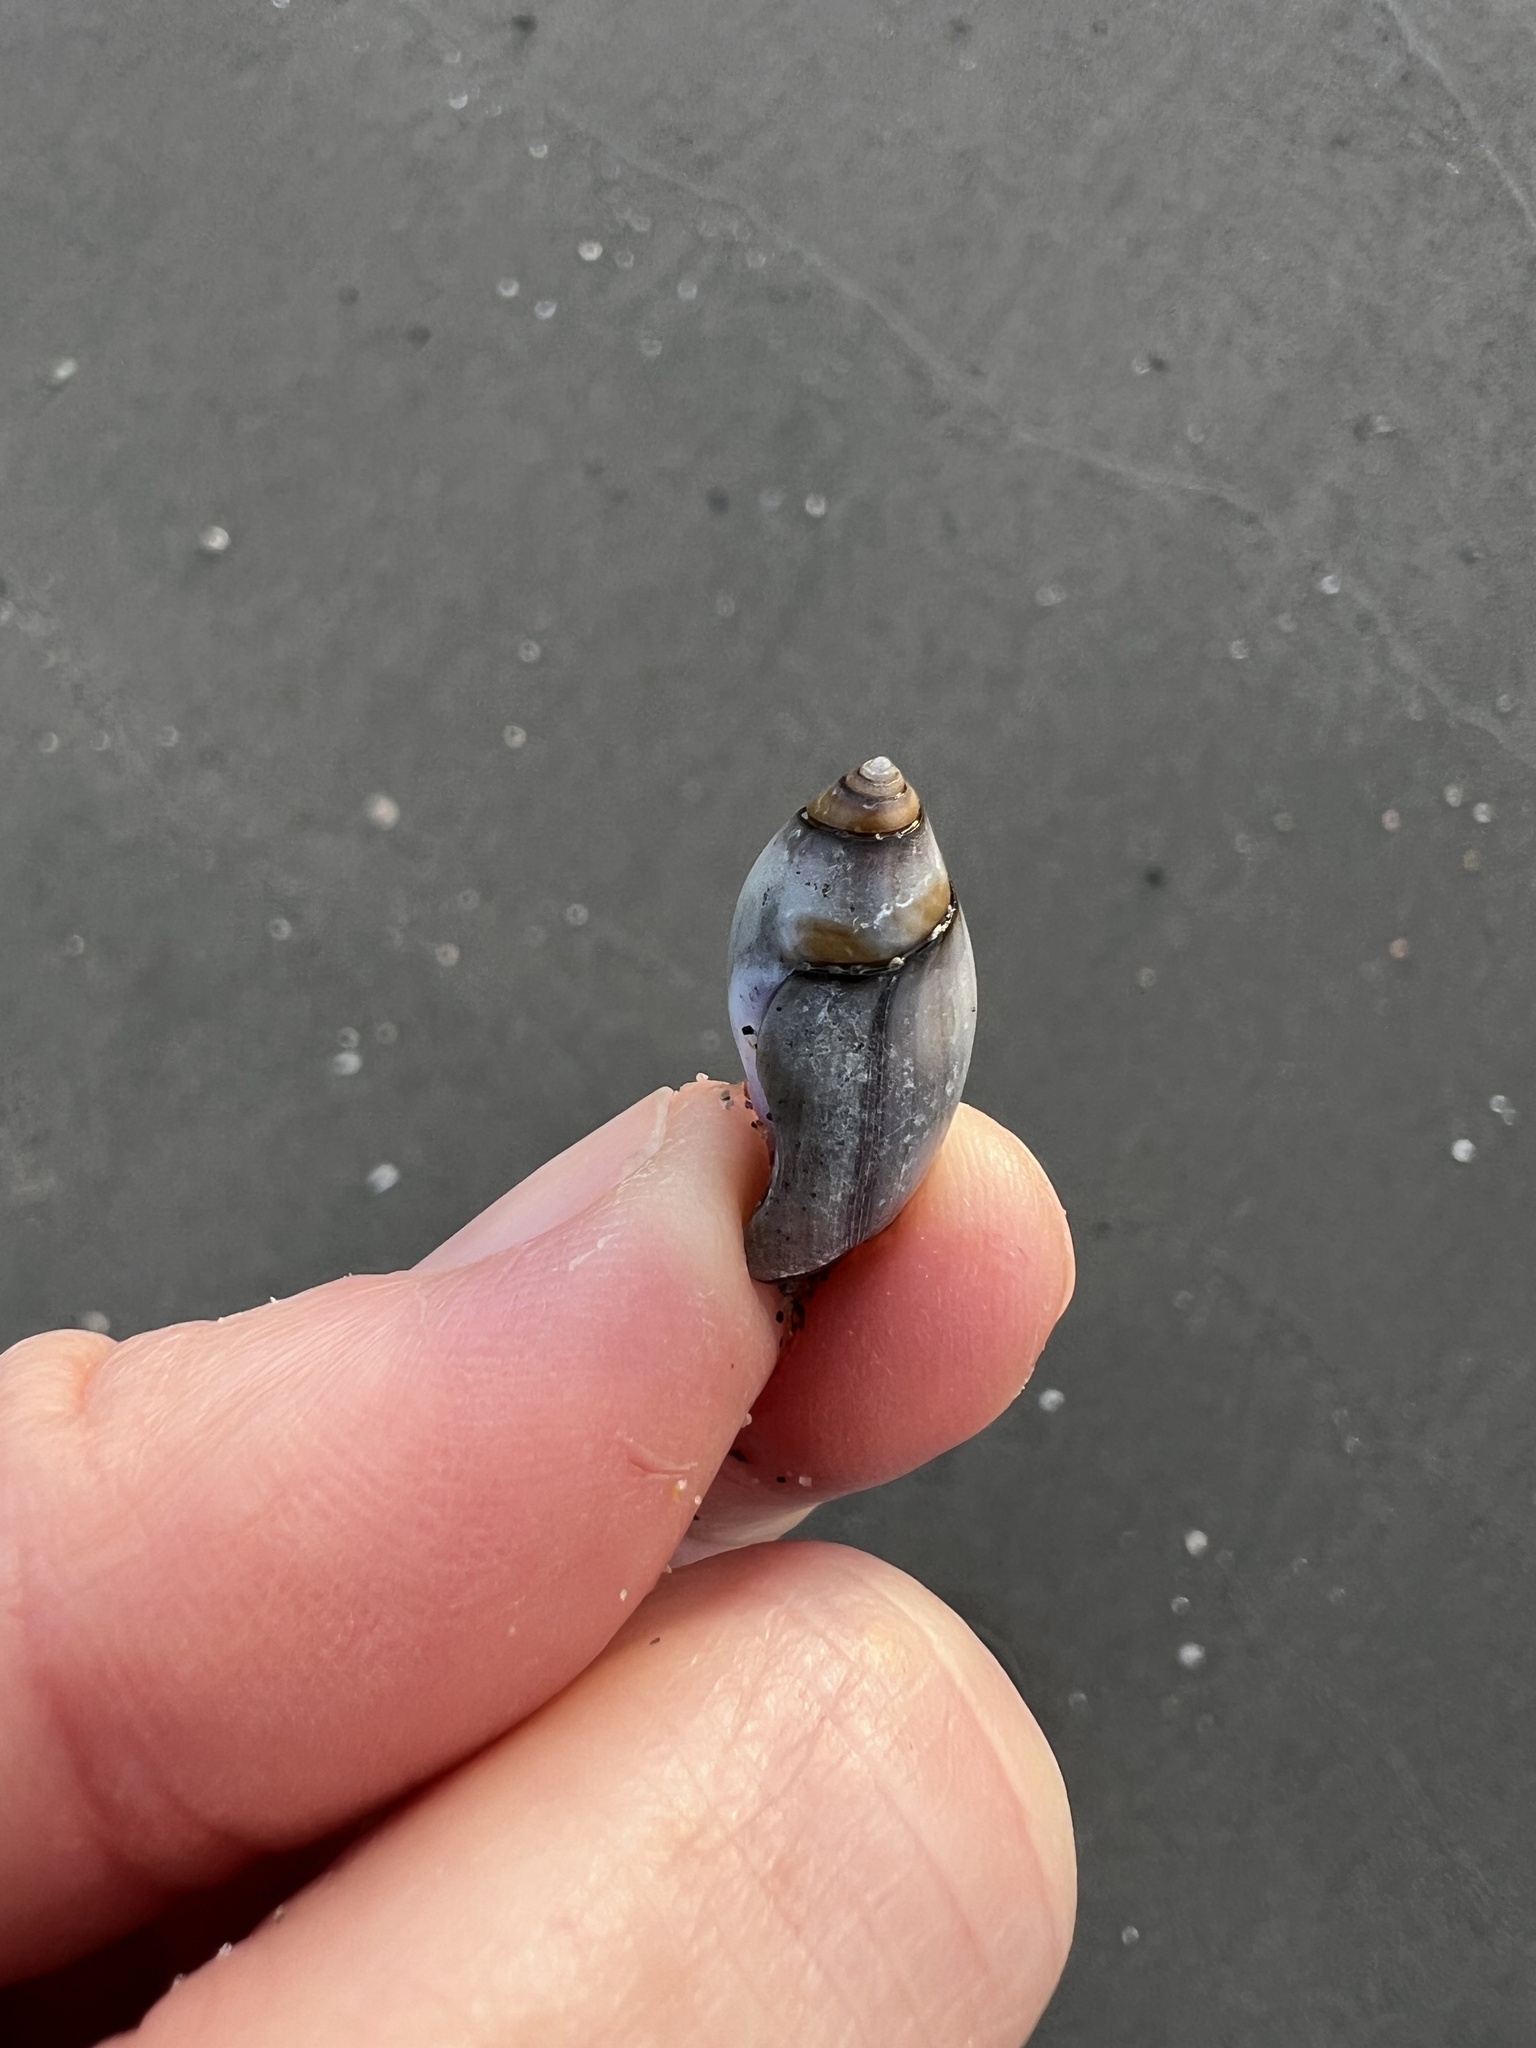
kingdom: Animalia
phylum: Mollusca
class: Gastropoda
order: Neogastropoda
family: Olividae
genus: Callianax
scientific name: Callianax biplicata
